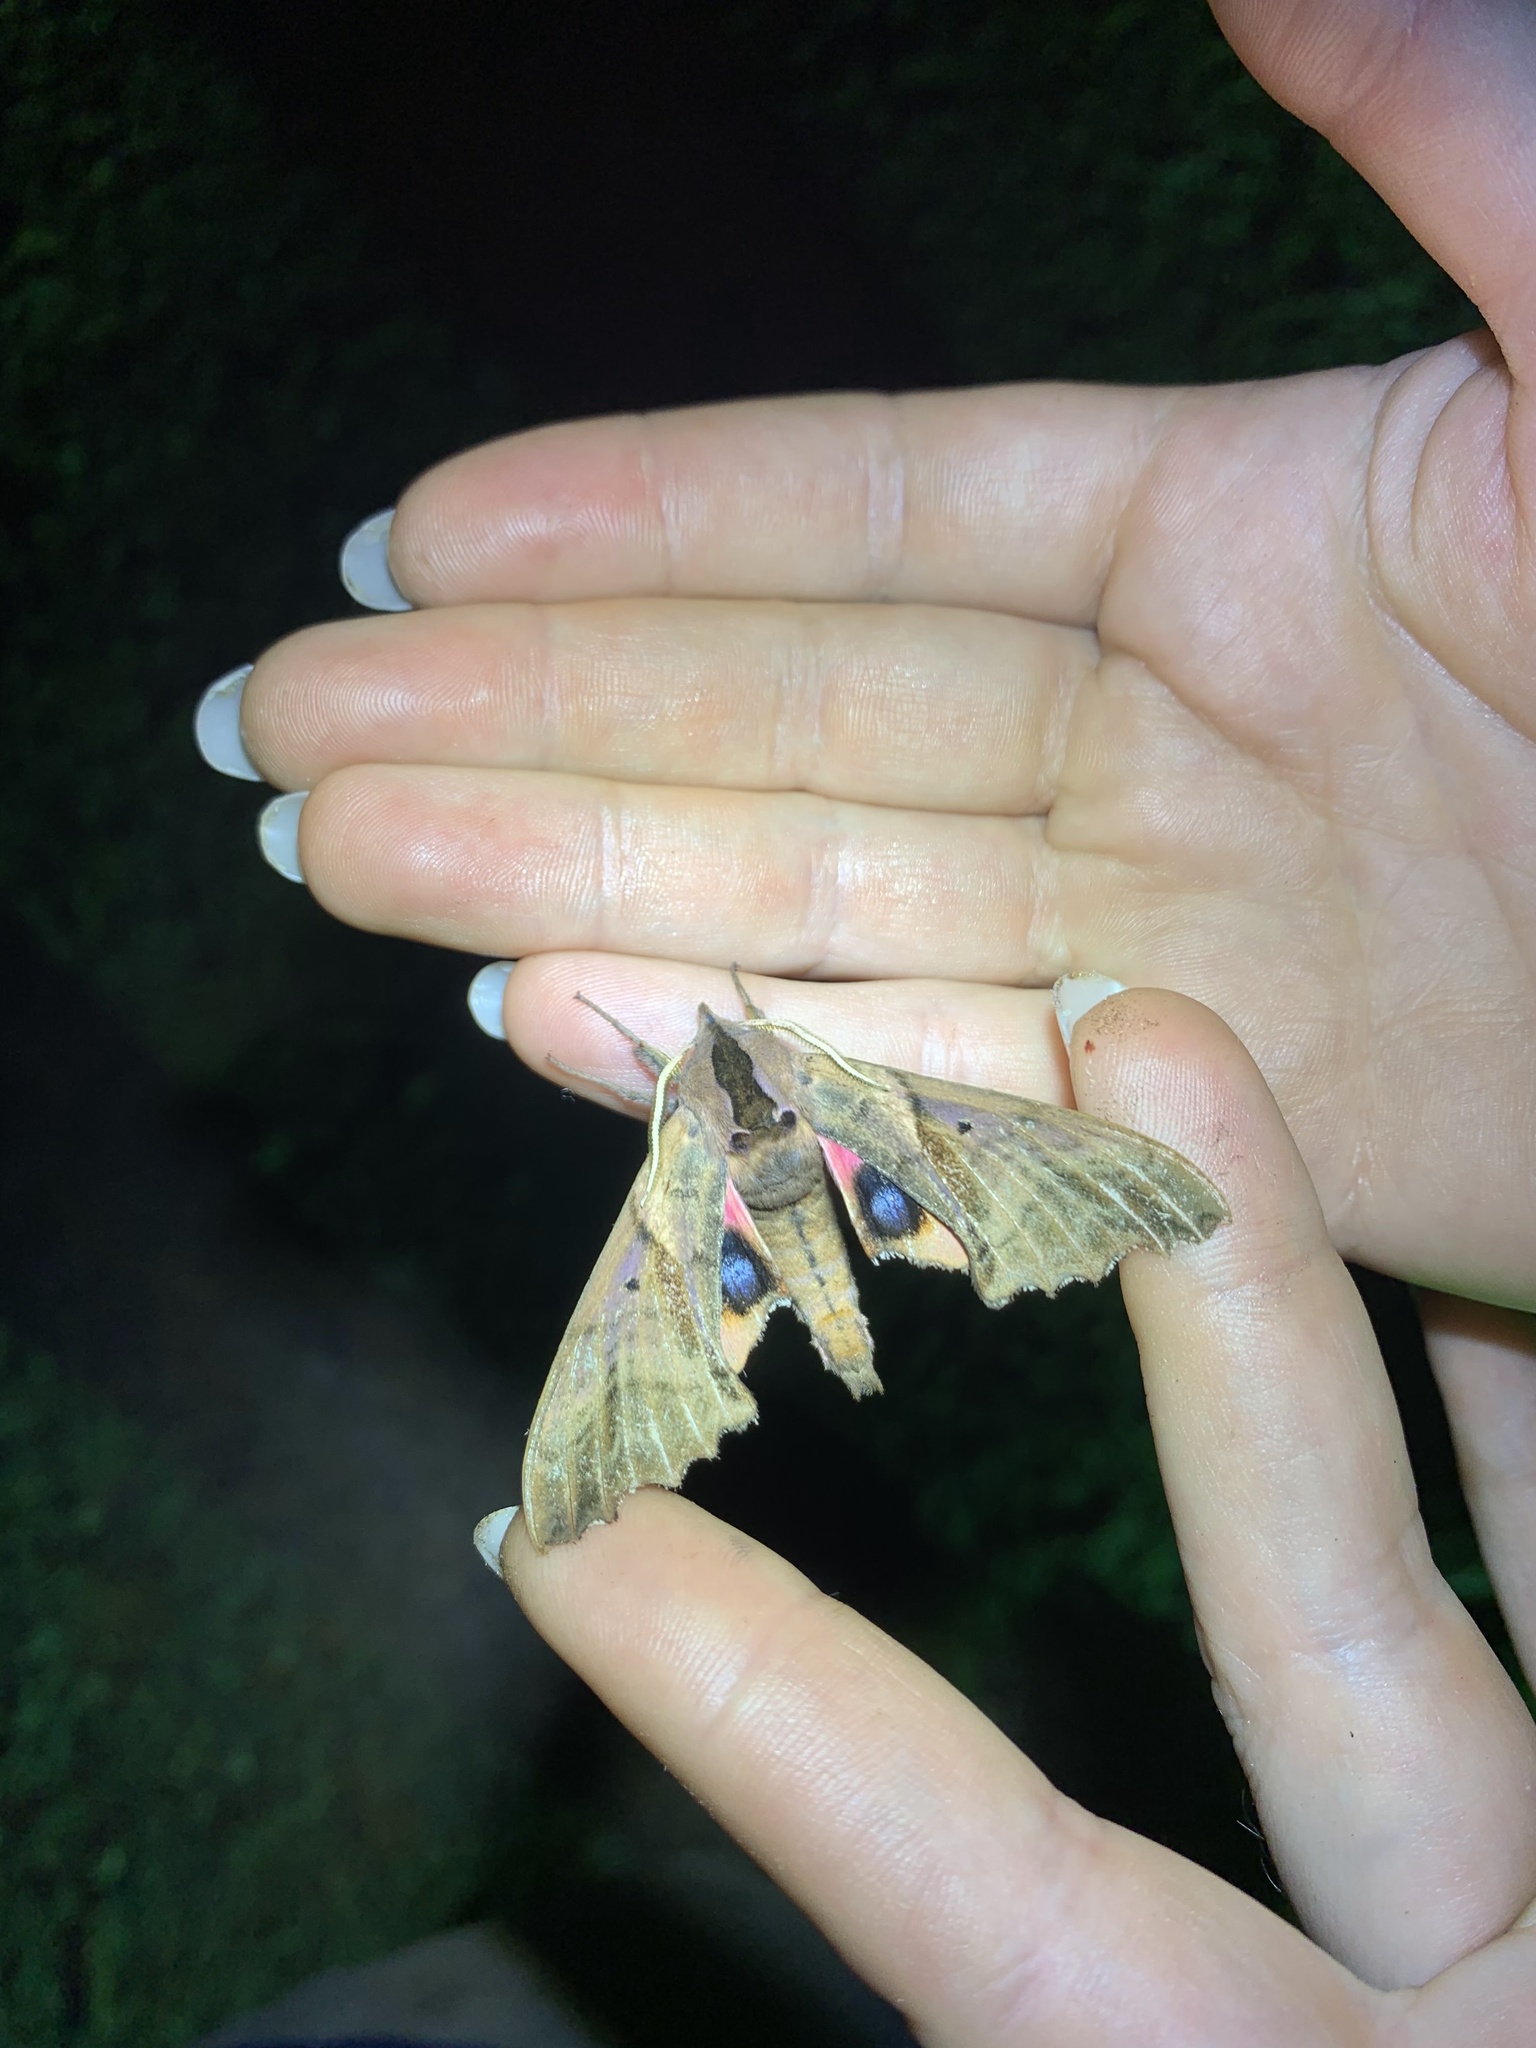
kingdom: Animalia
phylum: Arthropoda
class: Insecta
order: Lepidoptera
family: Sphingidae
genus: Paonias
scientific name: Paonias excaecata
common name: Blind-eyed sphinx
